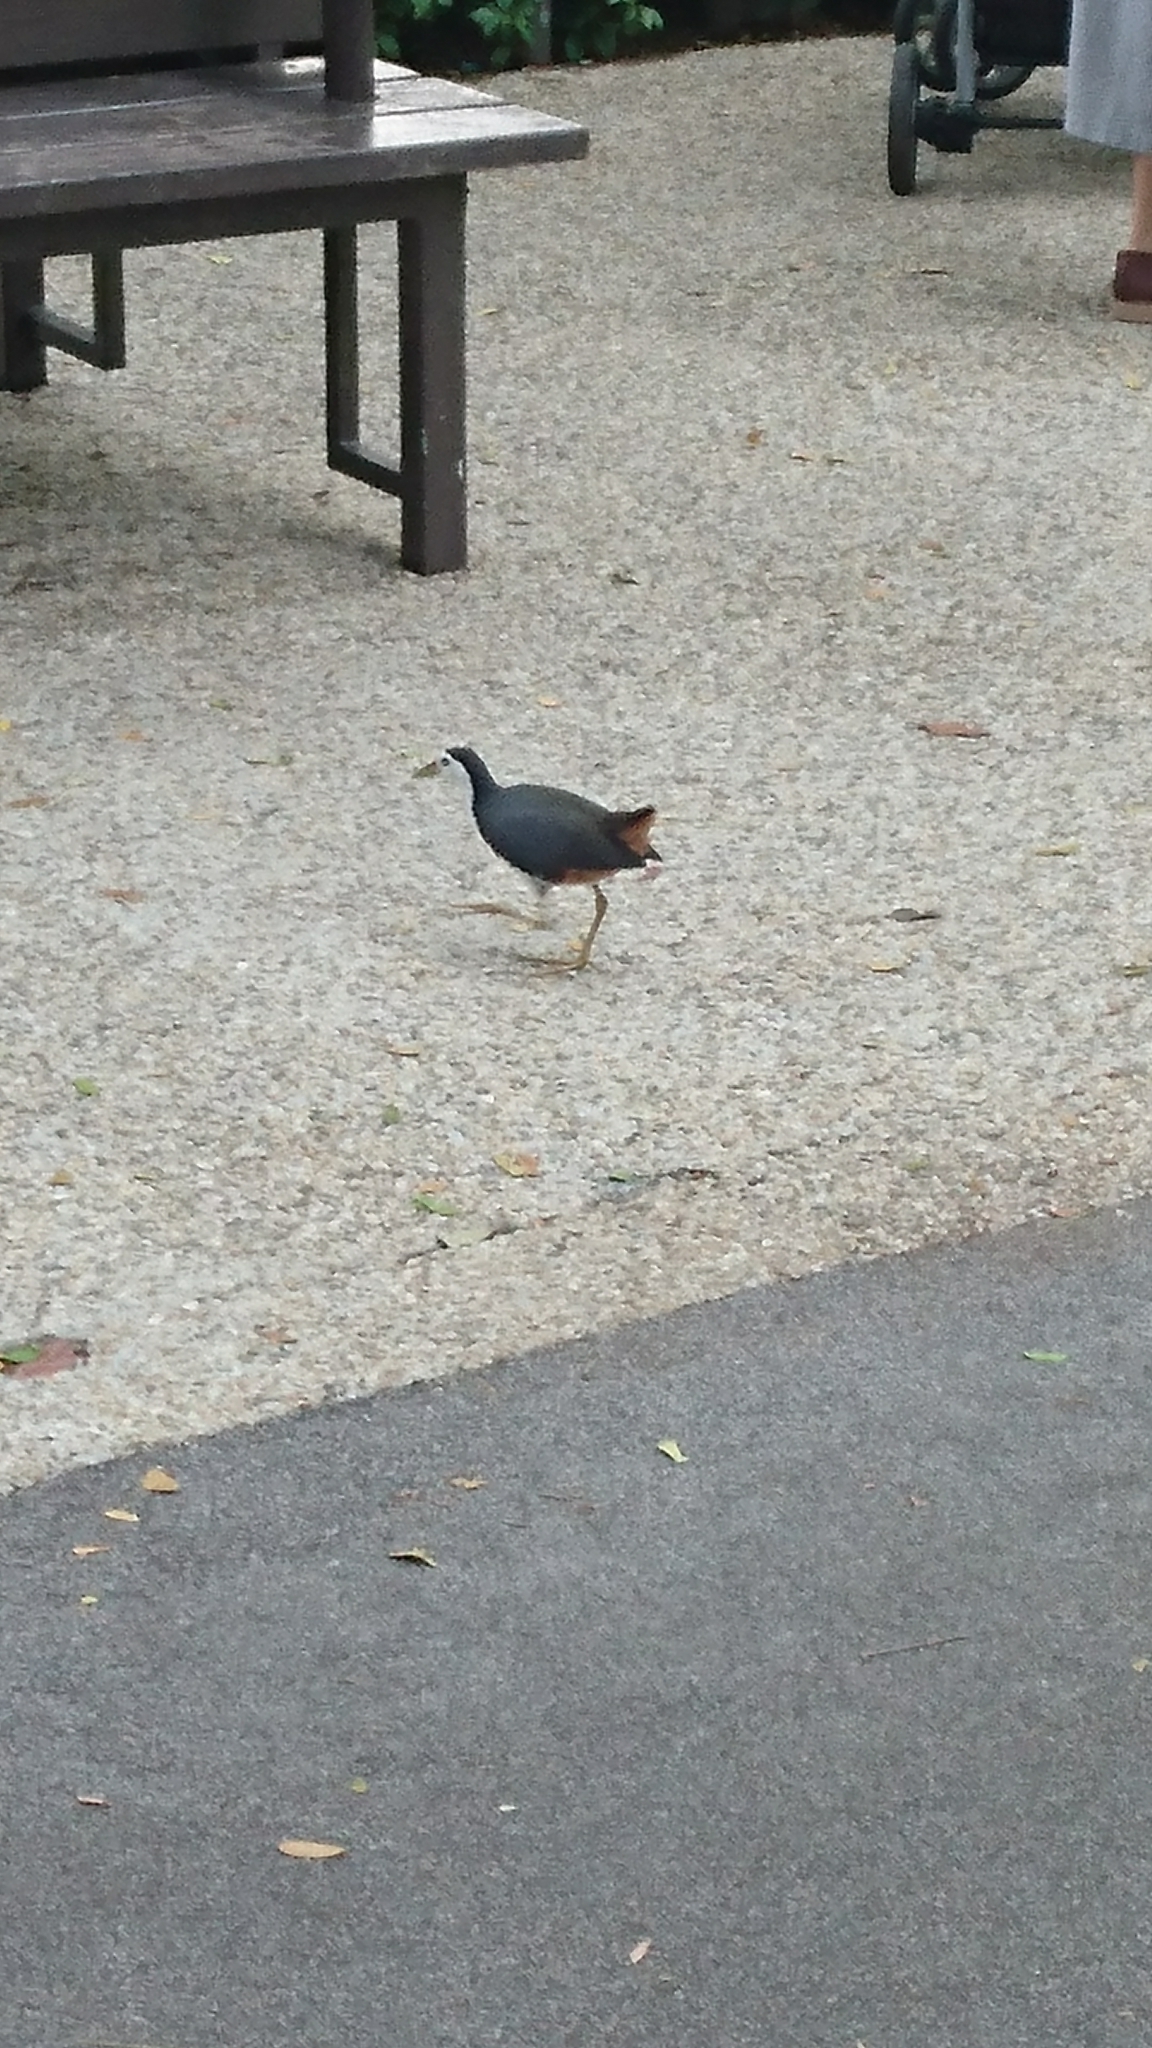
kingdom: Animalia
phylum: Chordata
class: Aves
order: Gruiformes
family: Rallidae
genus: Amaurornis
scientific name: Amaurornis phoenicurus
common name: White-breasted waterhen
